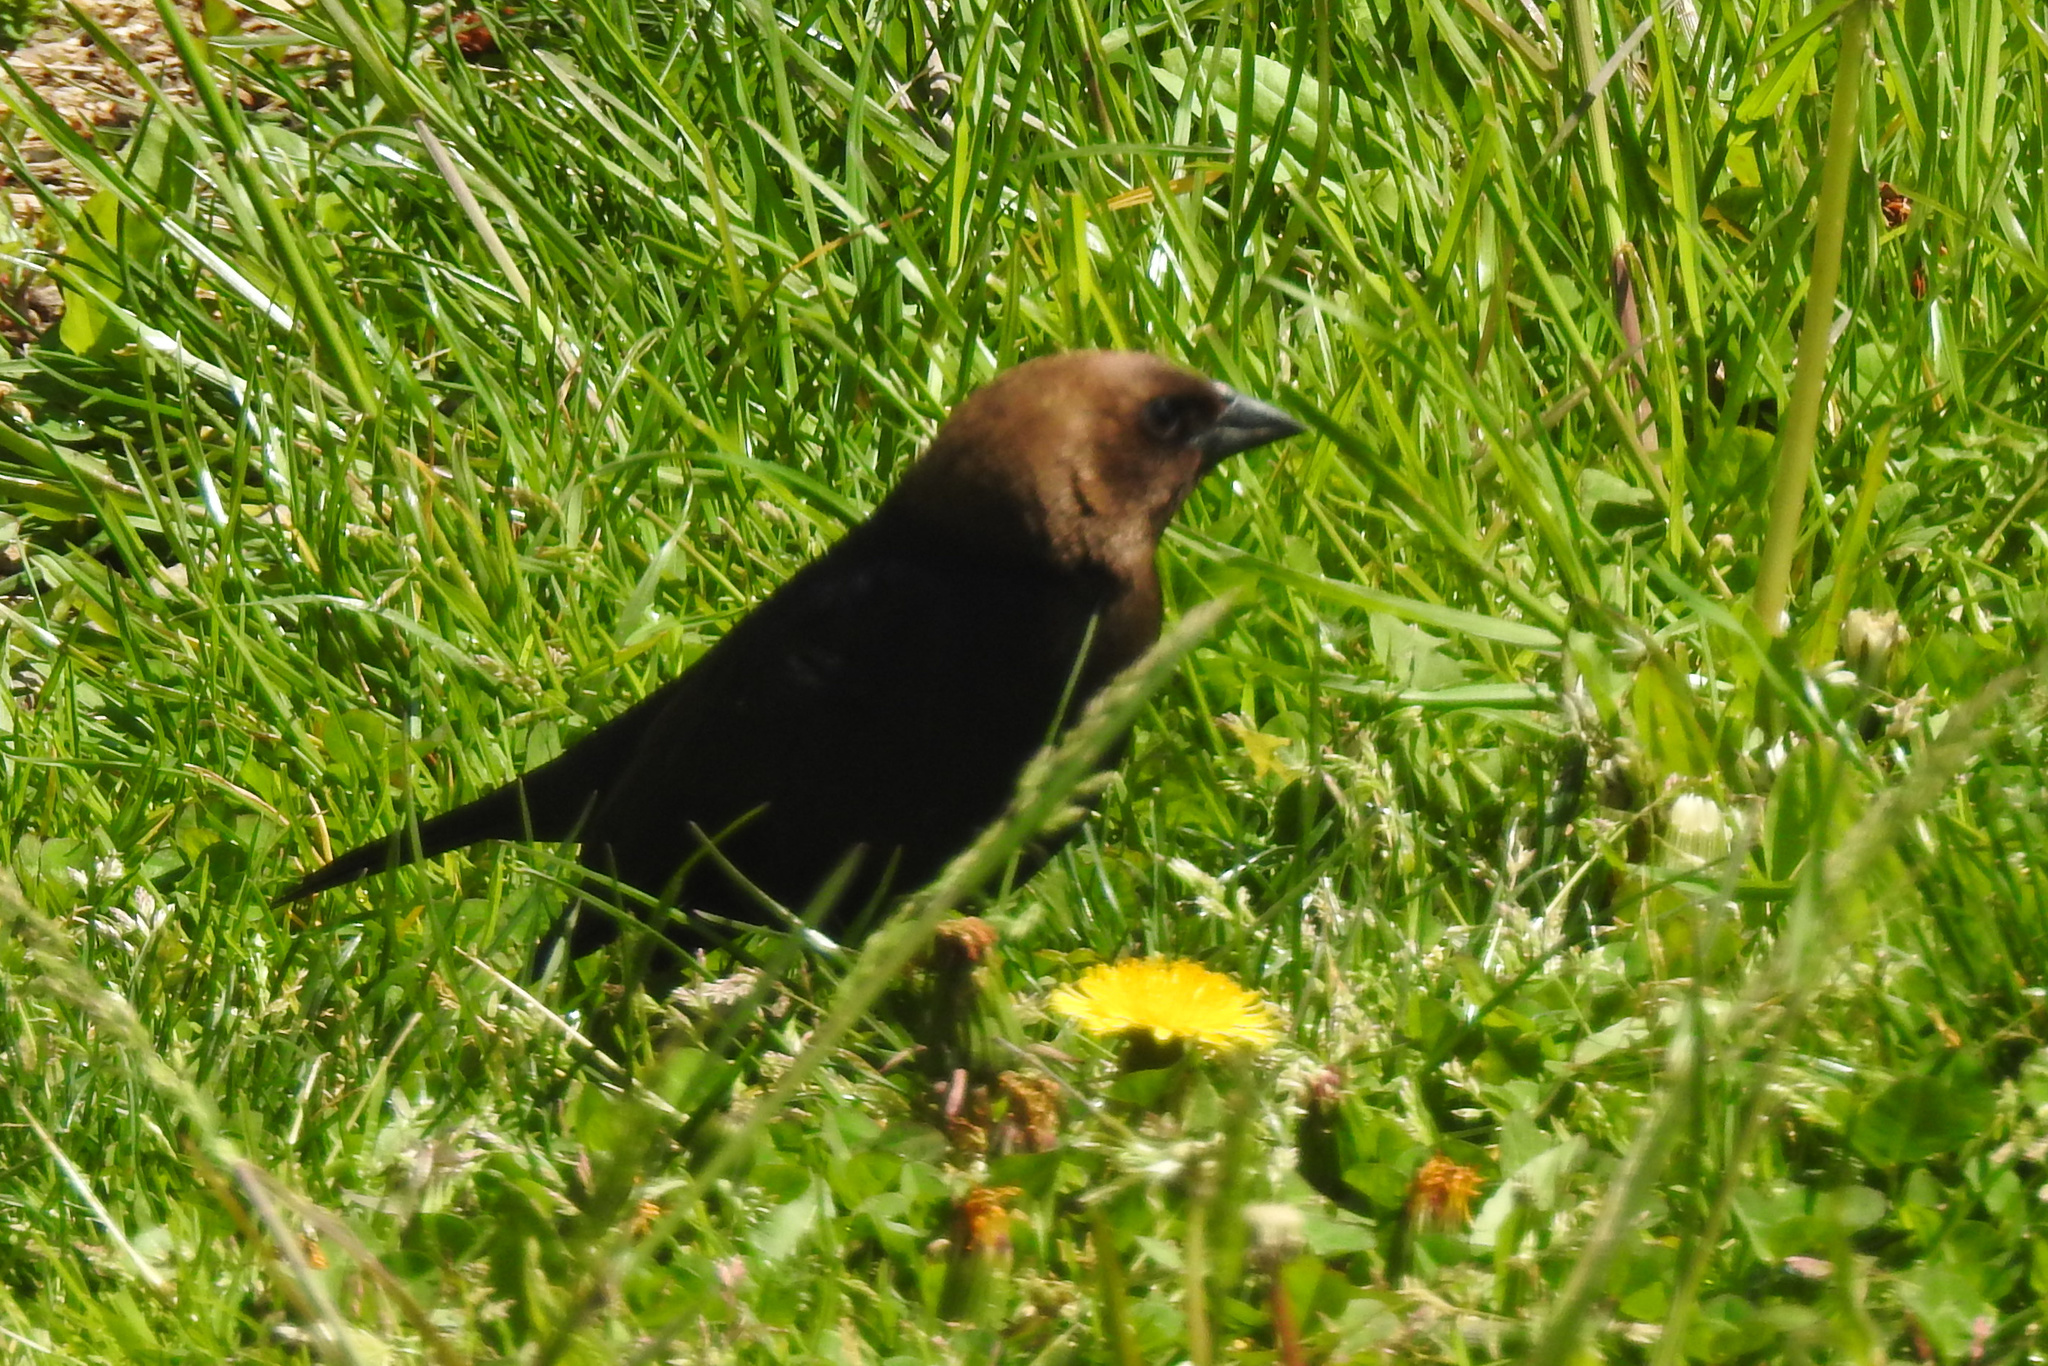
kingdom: Animalia
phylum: Chordata
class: Aves
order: Passeriformes
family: Icteridae
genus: Molothrus
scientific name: Molothrus ater
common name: Brown-headed cowbird
